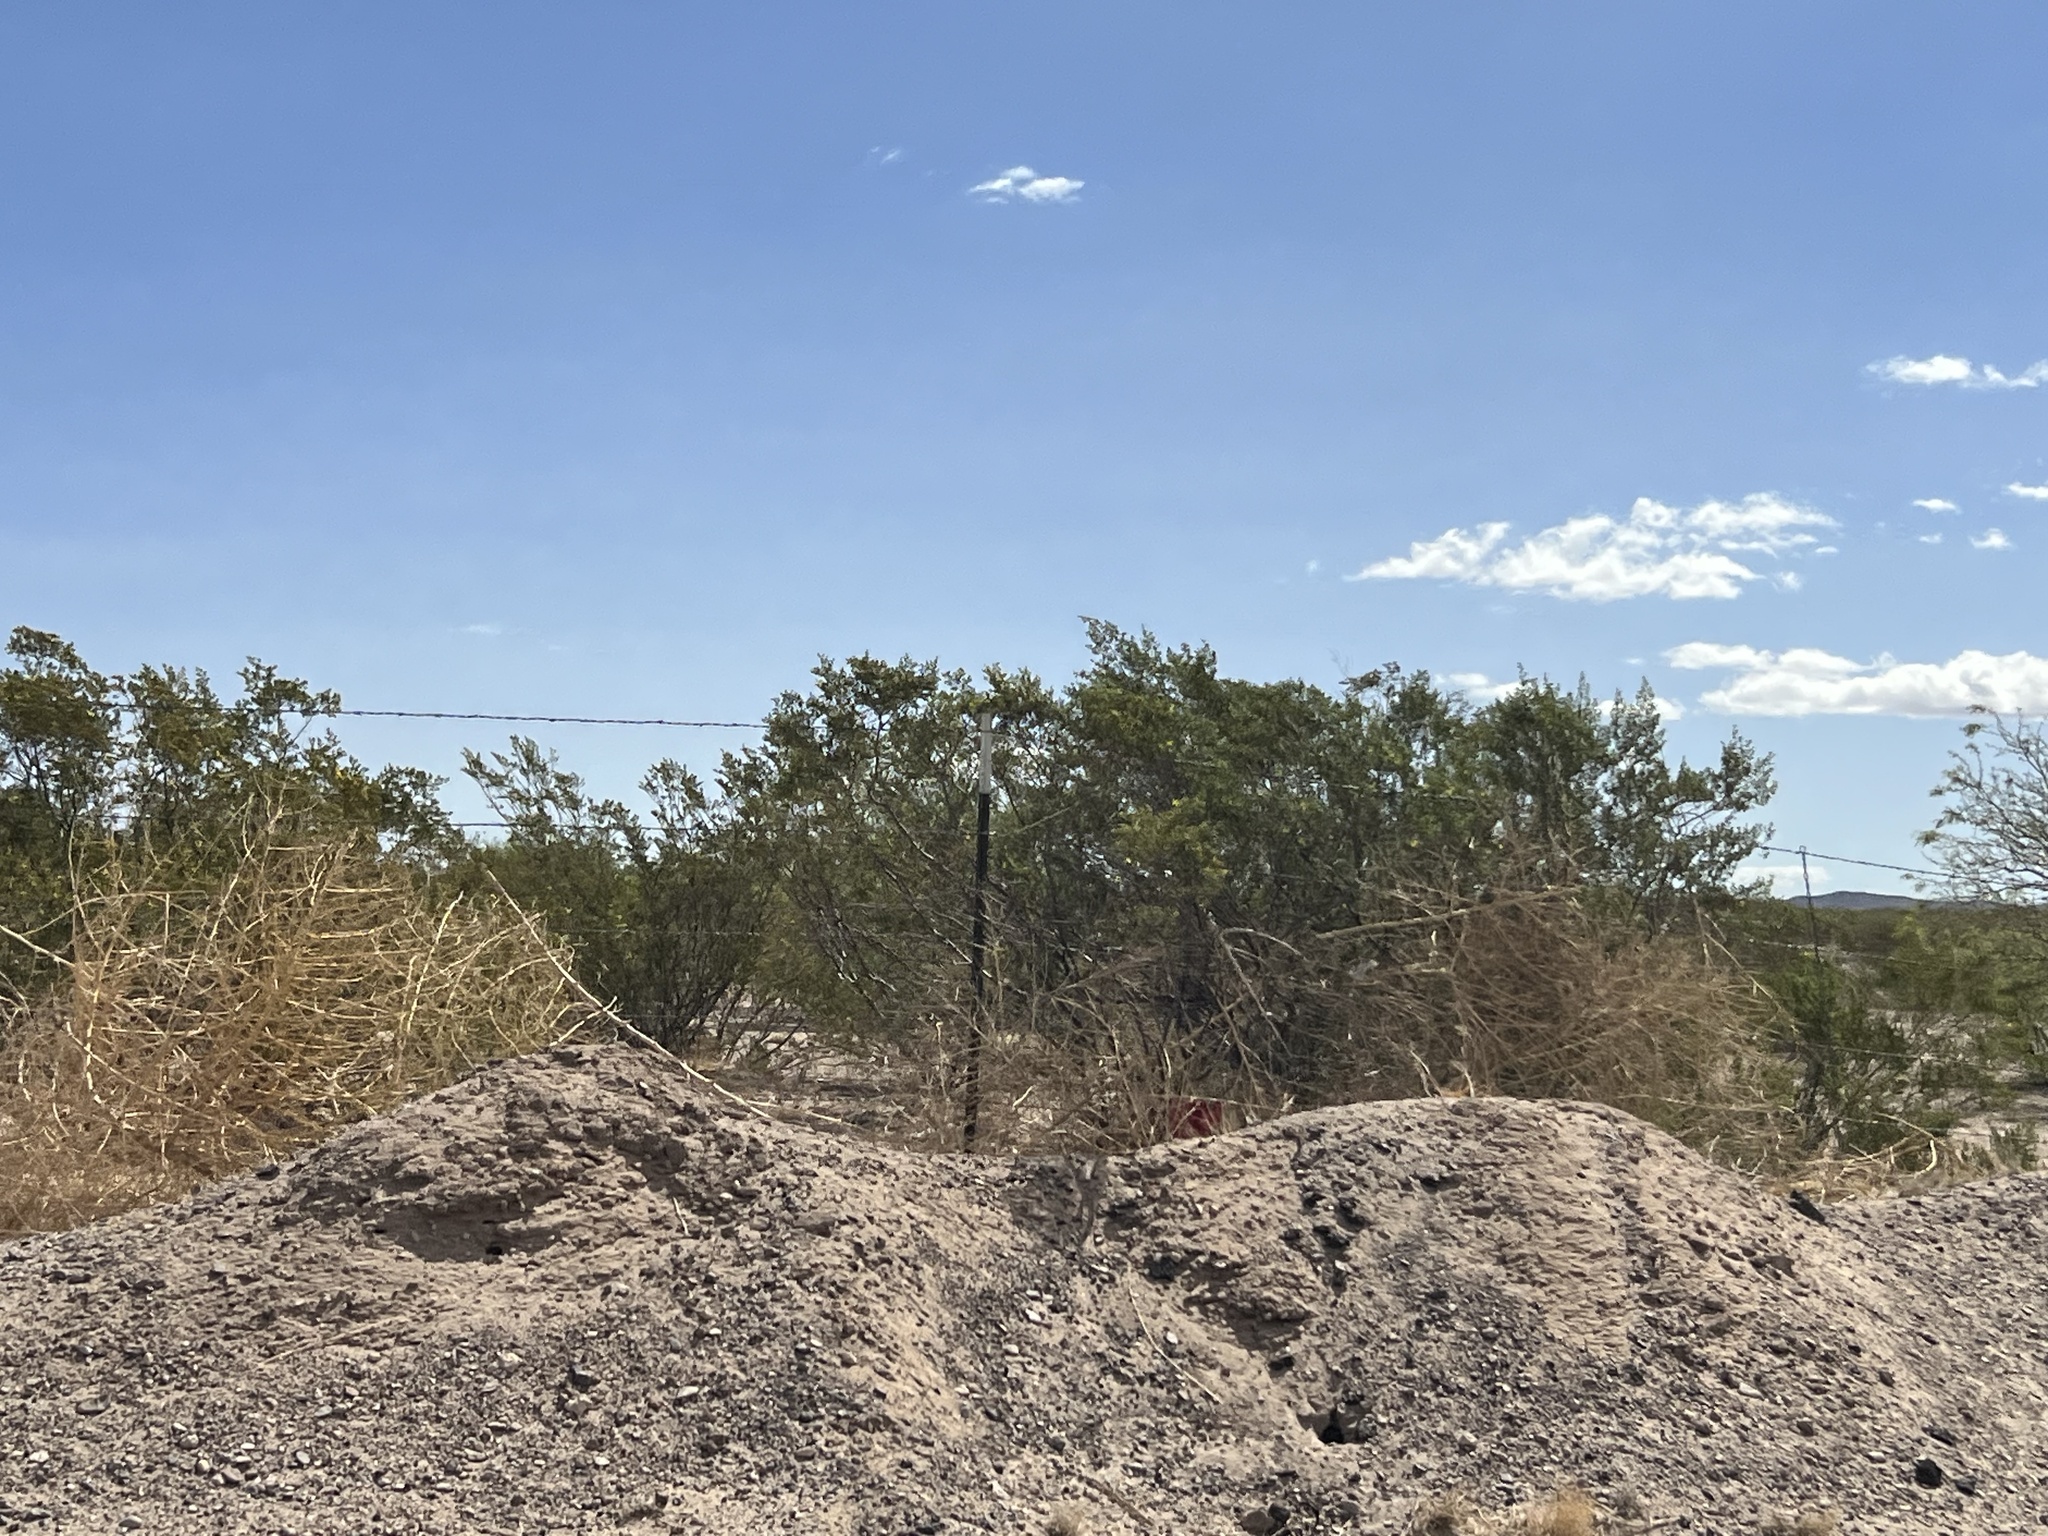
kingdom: Plantae
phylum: Tracheophyta
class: Magnoliopsida
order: Zygophyllales
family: Zygophyllaceae
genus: Larrea
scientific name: Larrea tridentata
